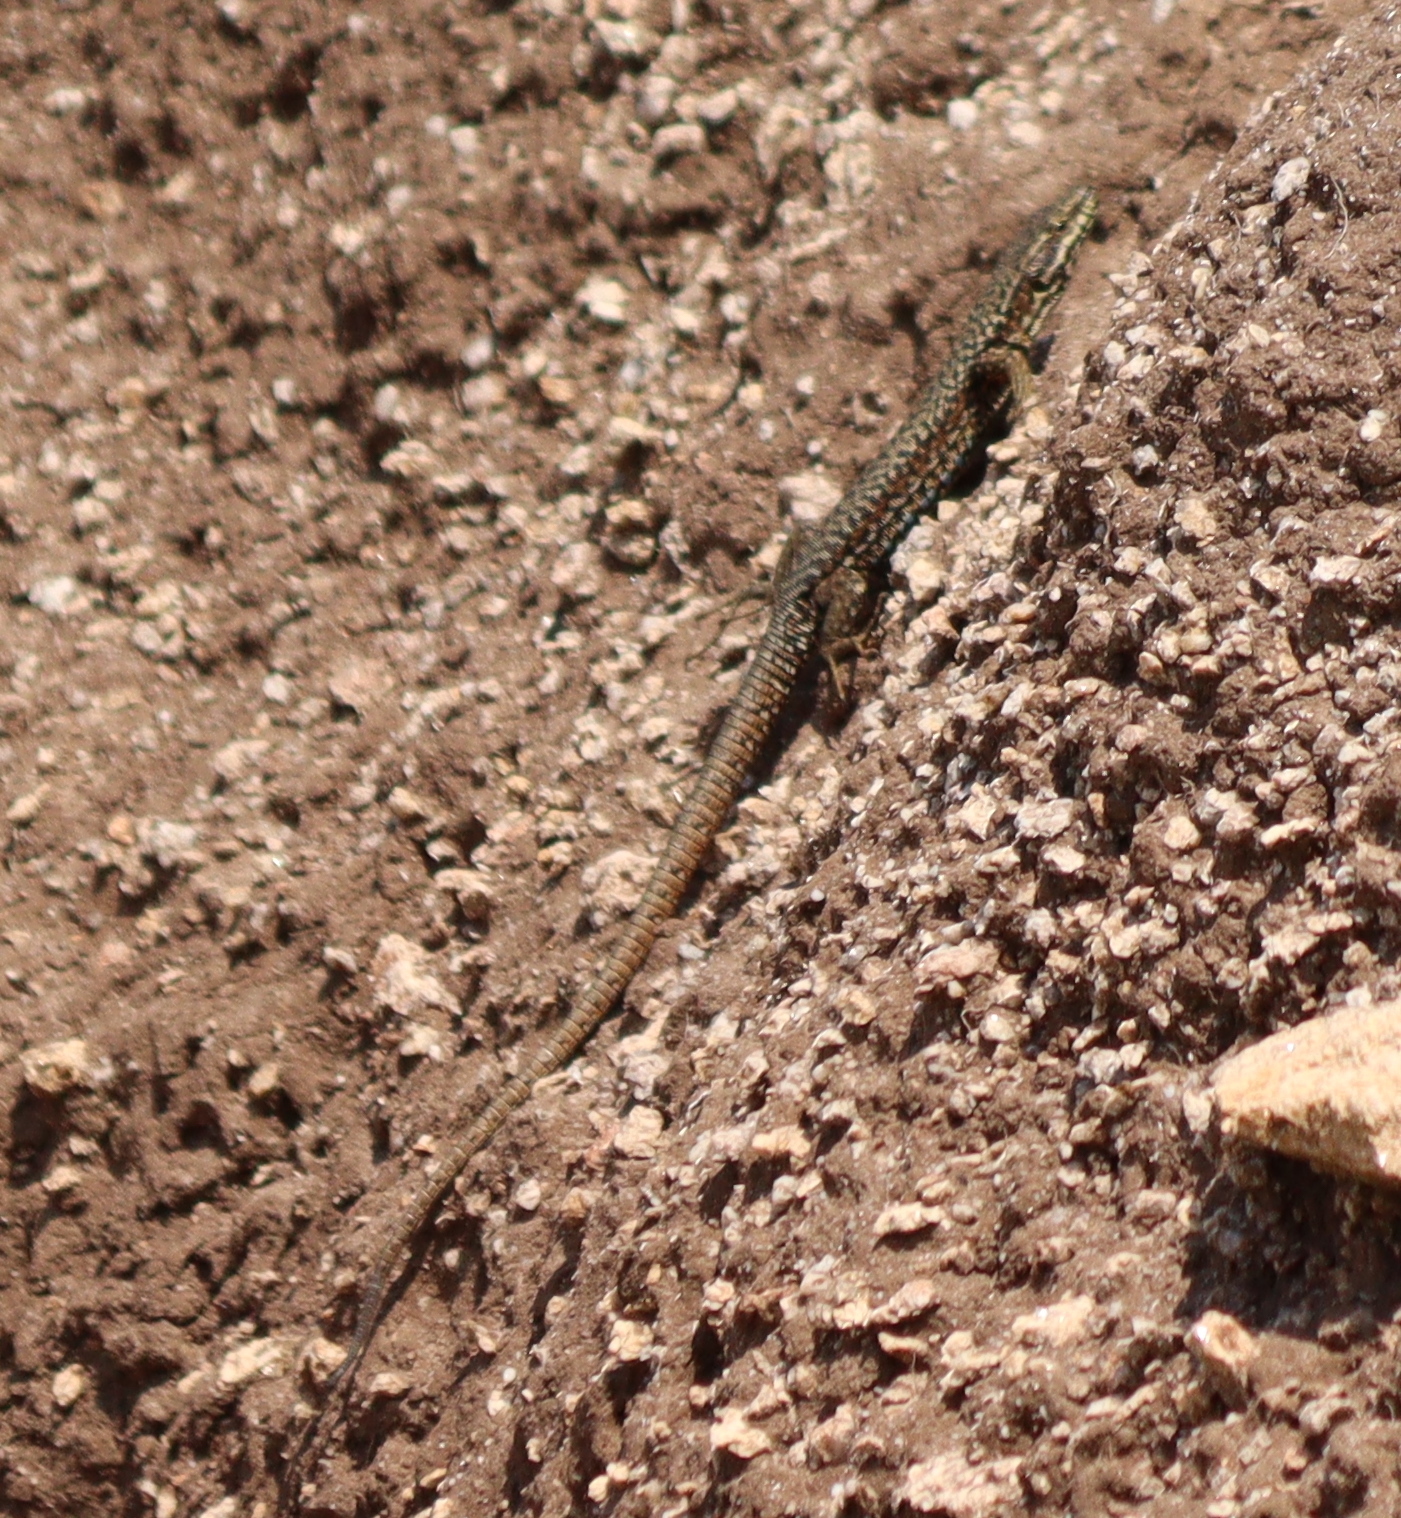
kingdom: Animalia
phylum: Chordata
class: Squamata
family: Lacertidae
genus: Podarcis
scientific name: Podarcis muralis
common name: Common wall lizard
